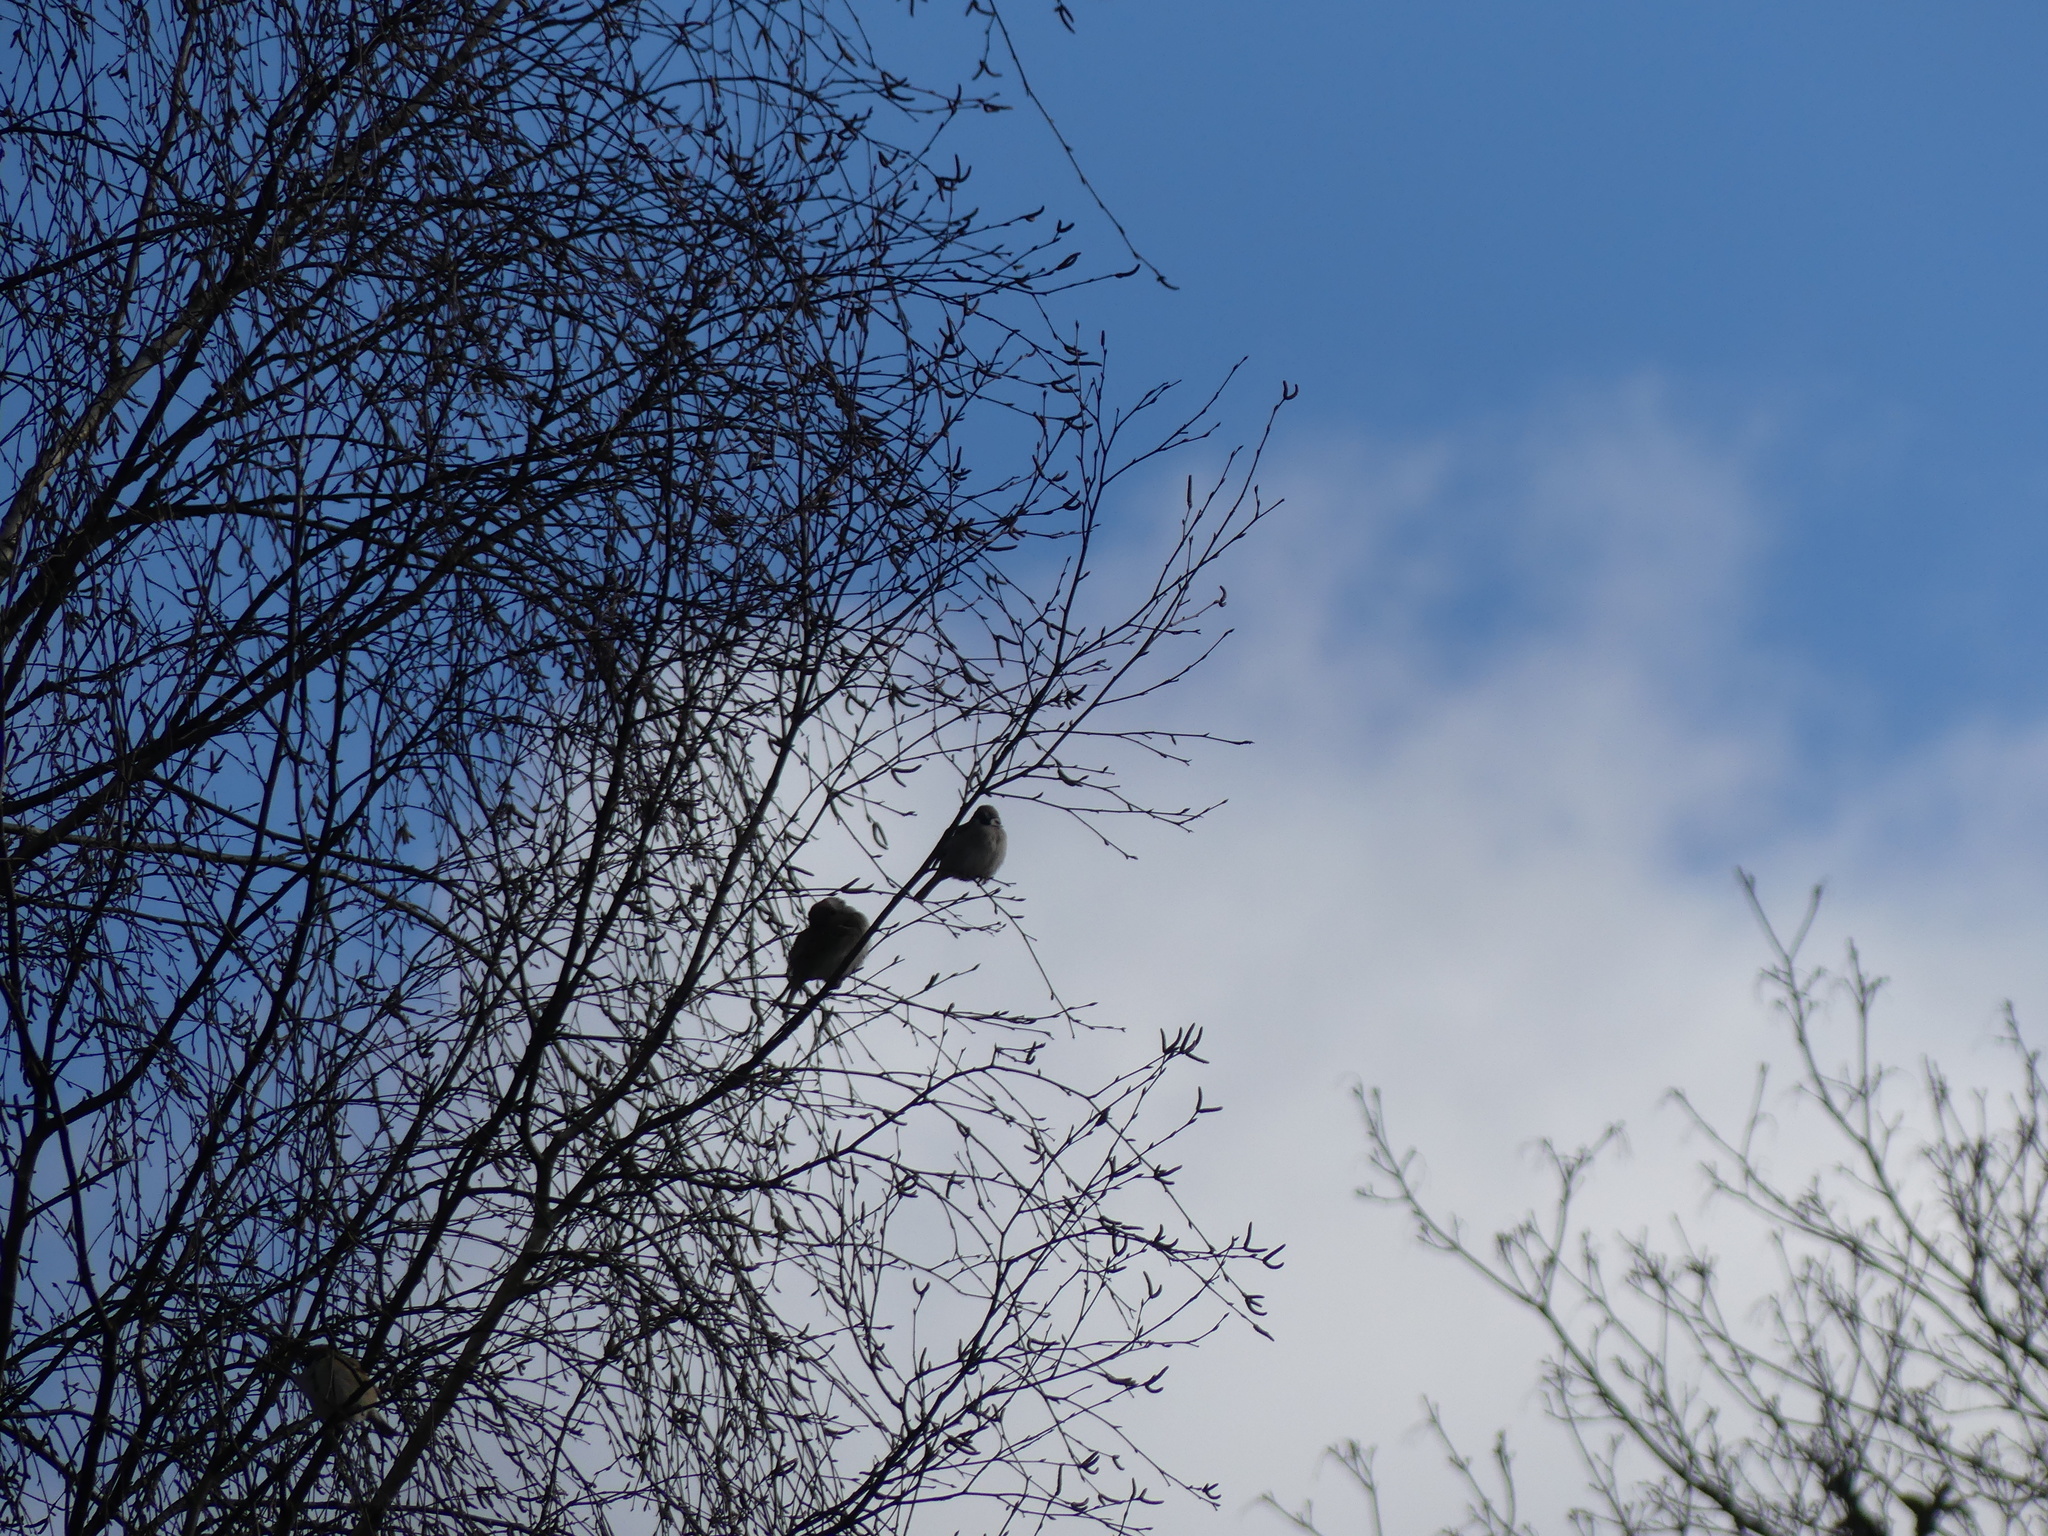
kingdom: Animalia
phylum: Chordata
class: Aves
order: Passeriformes
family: Passeridae
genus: Passer
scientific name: Passer montanus
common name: Eurasian tree sparrow
